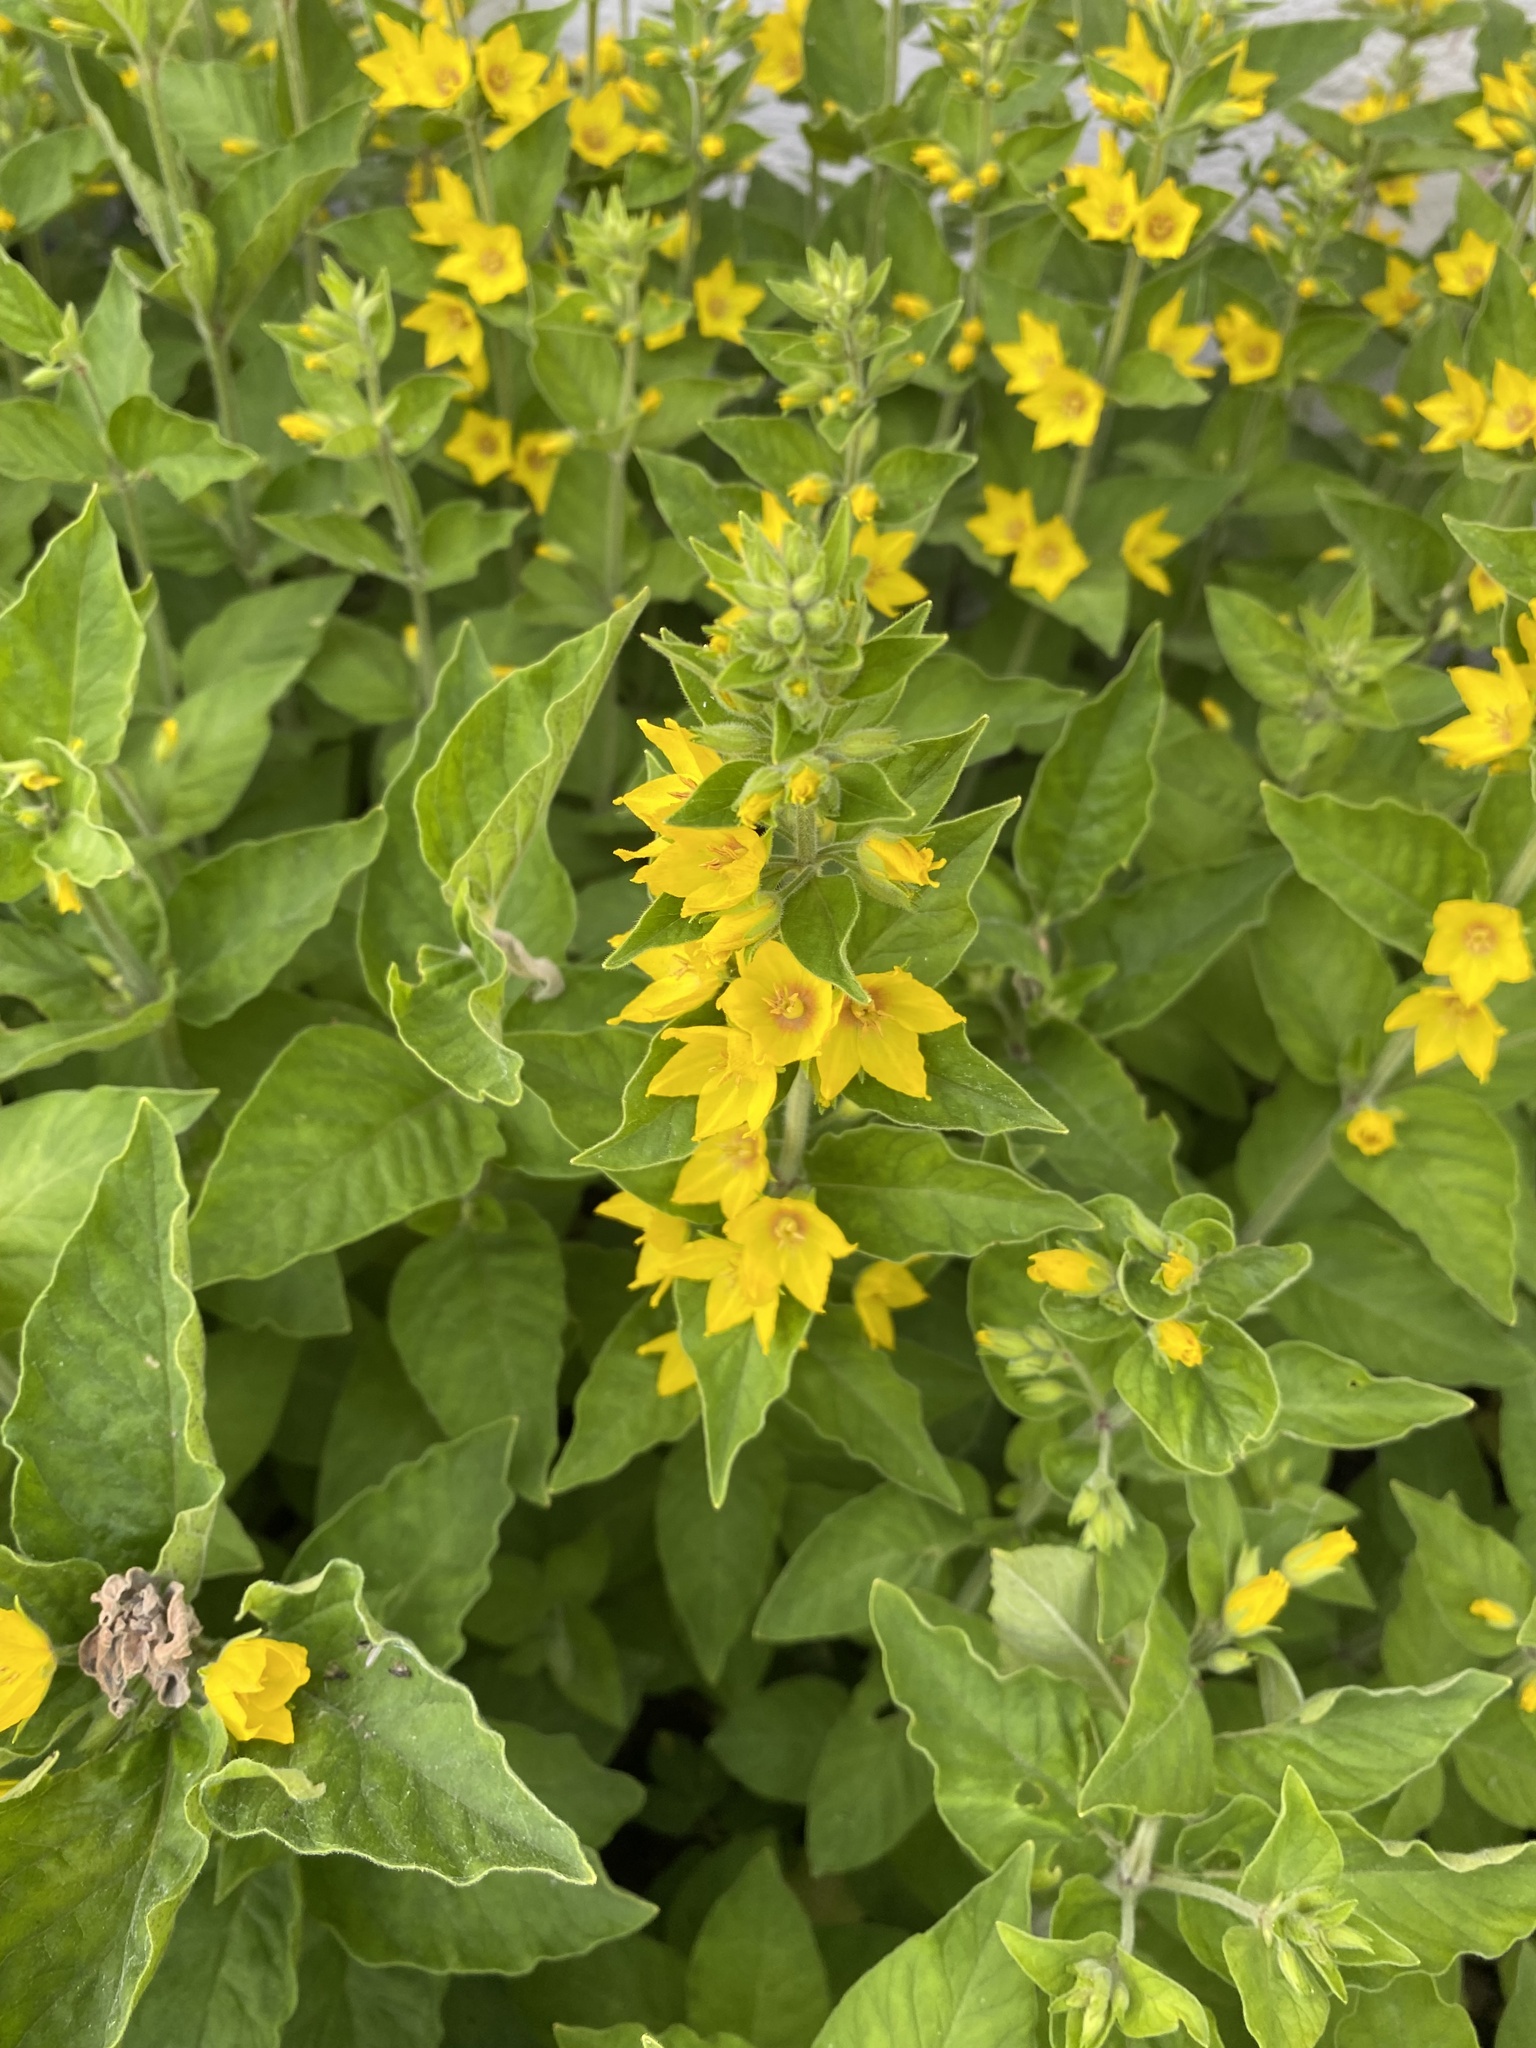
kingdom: Plantae
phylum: Tracheophyta
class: Magnoliopsida
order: Ericales
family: Primulaceae
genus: Lysimachia
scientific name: Lysimachia punctata
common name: Dotted loosestrife
